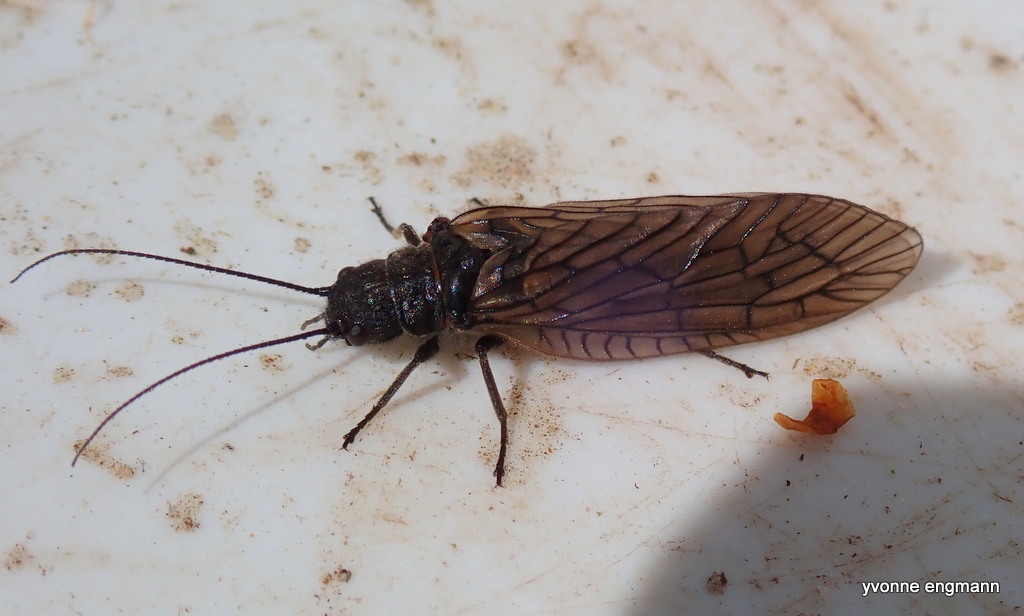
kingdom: Animalia
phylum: Arthropoda
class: Insecta
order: Megaloptera
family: Sialidae
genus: Sialis
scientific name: Sialis
